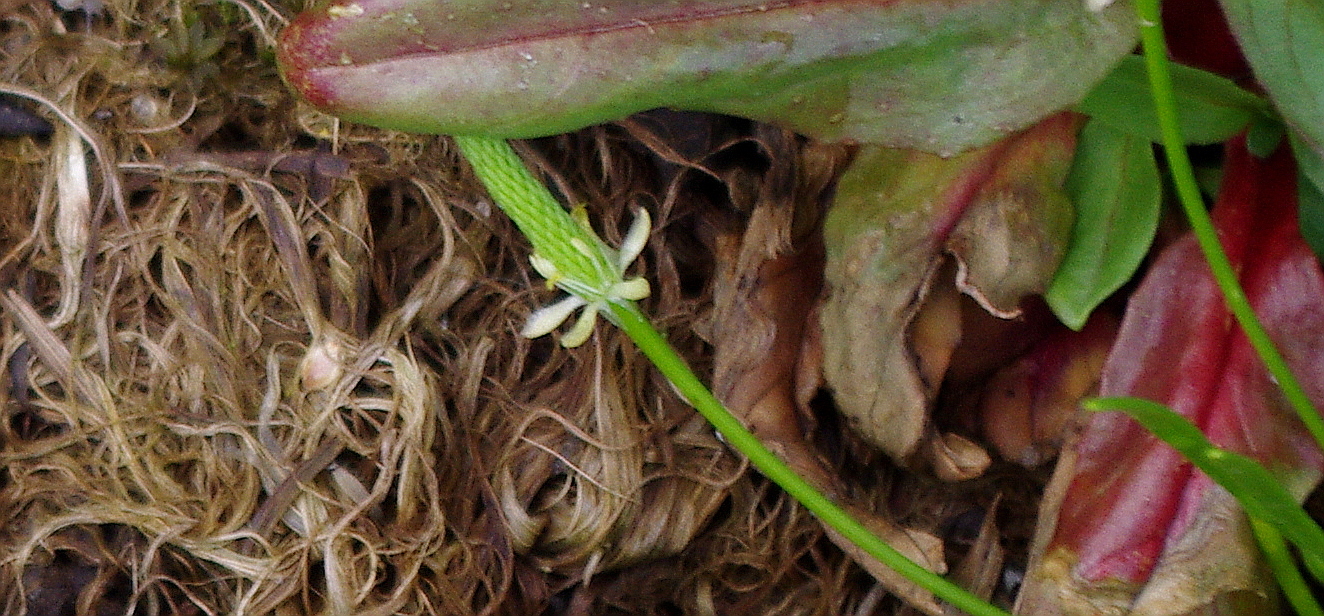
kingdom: Plantae
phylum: Tracheophyta
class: Magnoliopsida
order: Ranunculales
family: Ranunculaceae
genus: Myosurus
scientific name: Myosurus minimus
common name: Mousetail
